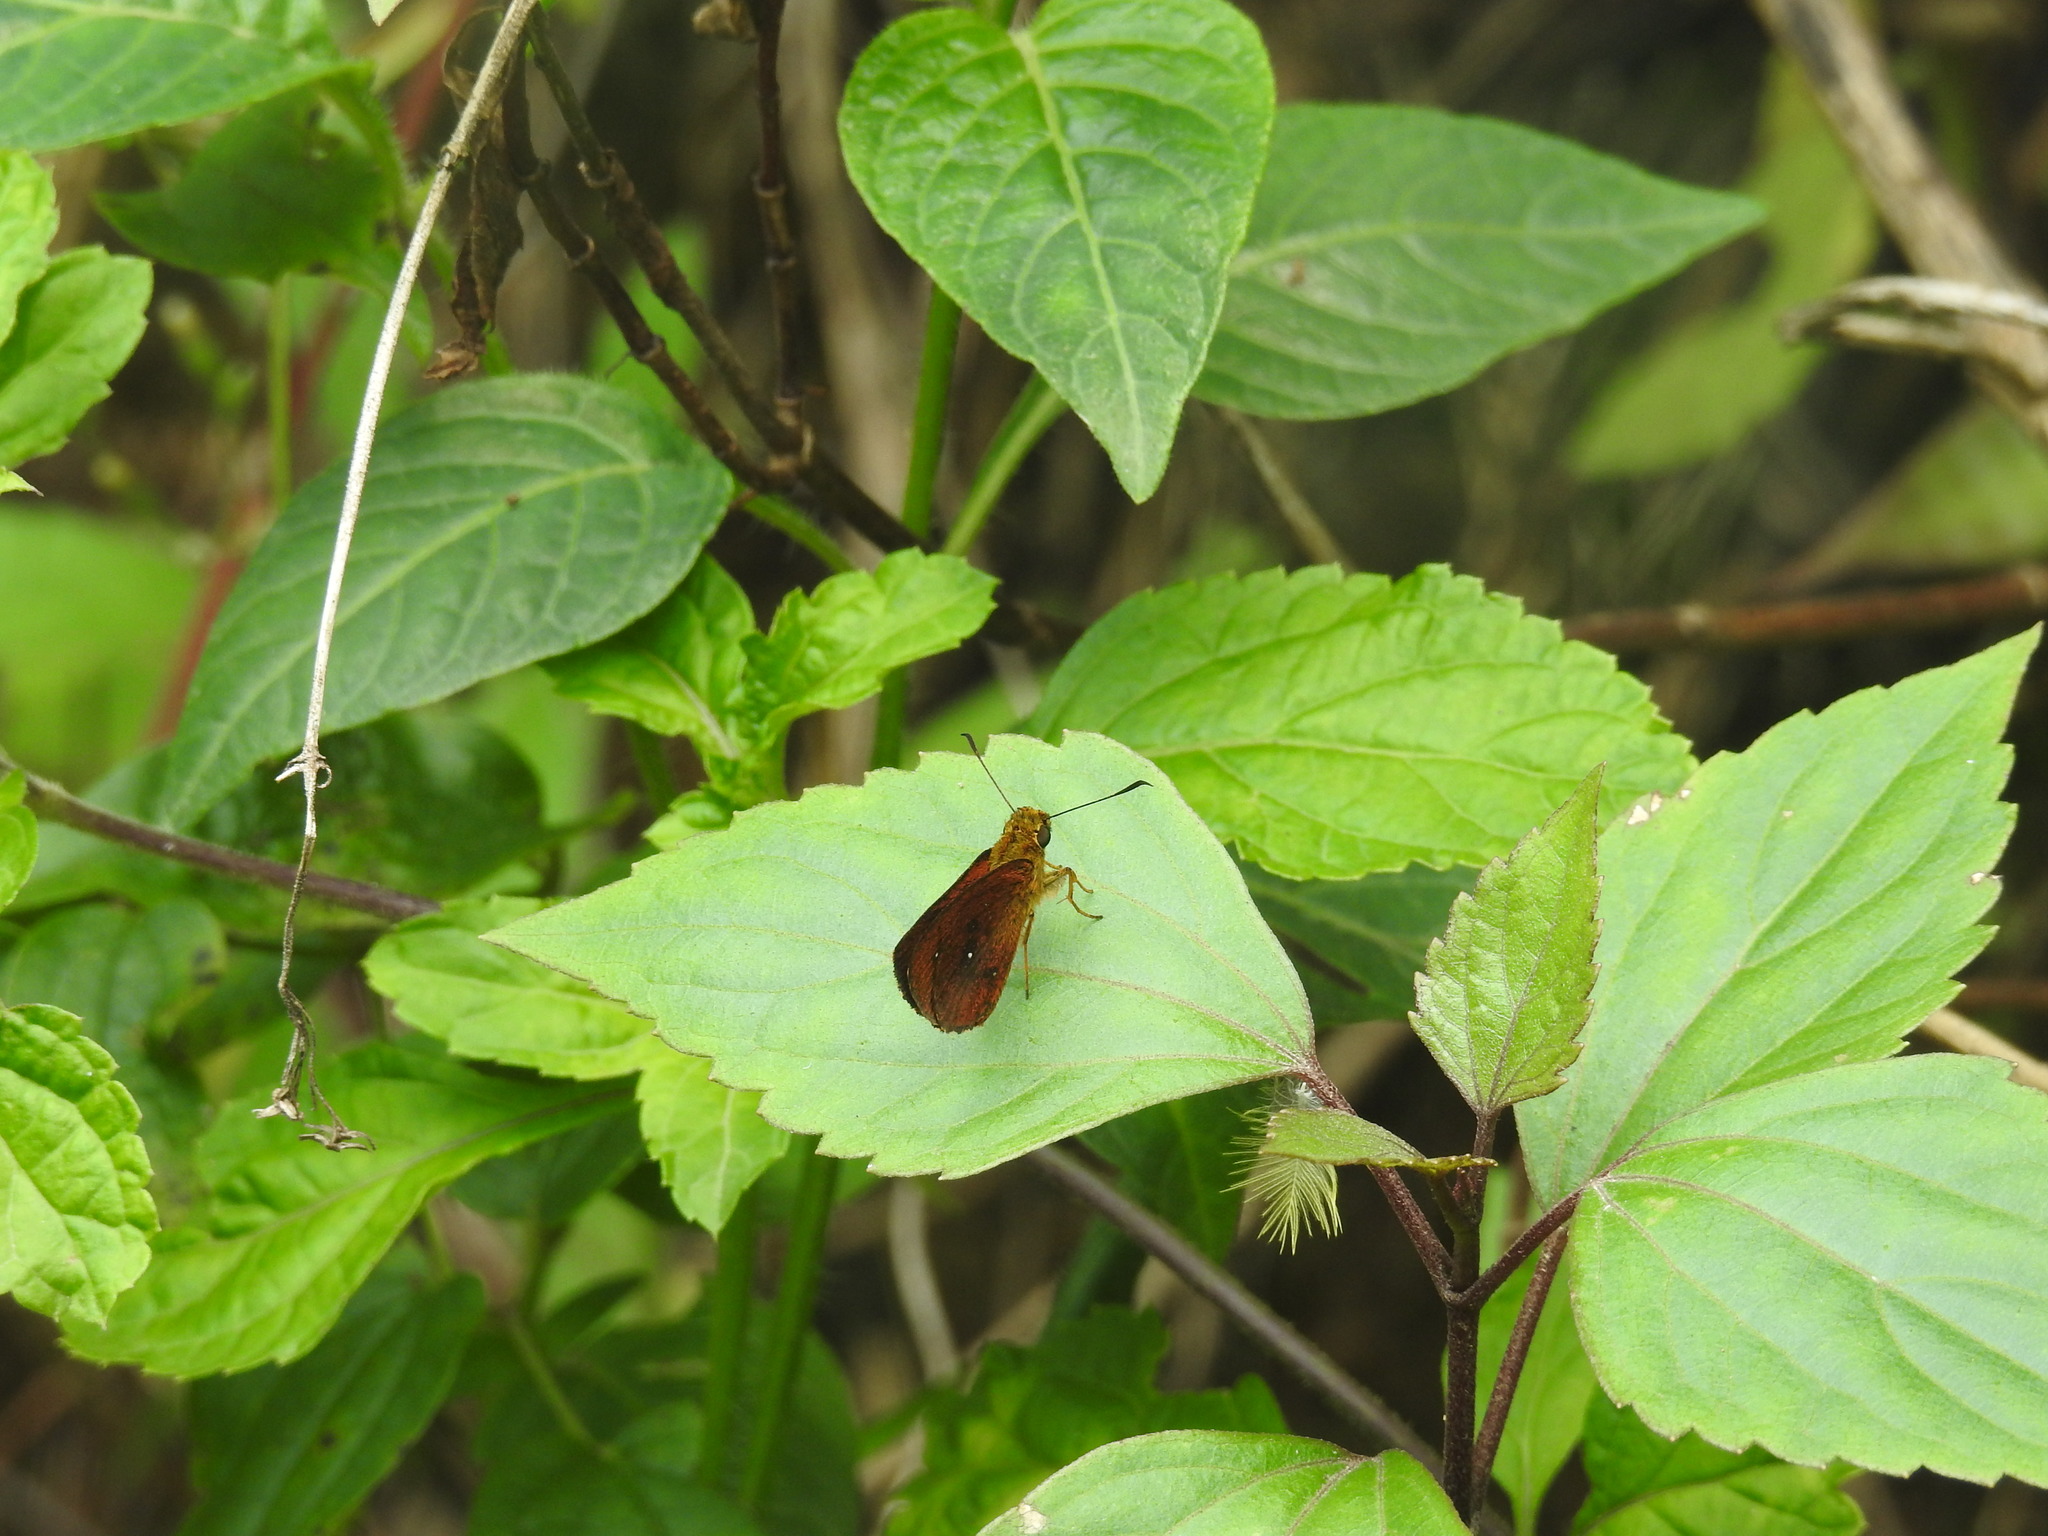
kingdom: Animalia
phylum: Arthropoda
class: Insecta
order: Lepidoptera
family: Hesperiidae
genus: Iambrix
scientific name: Iambrix salsala
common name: Chestnut bob
